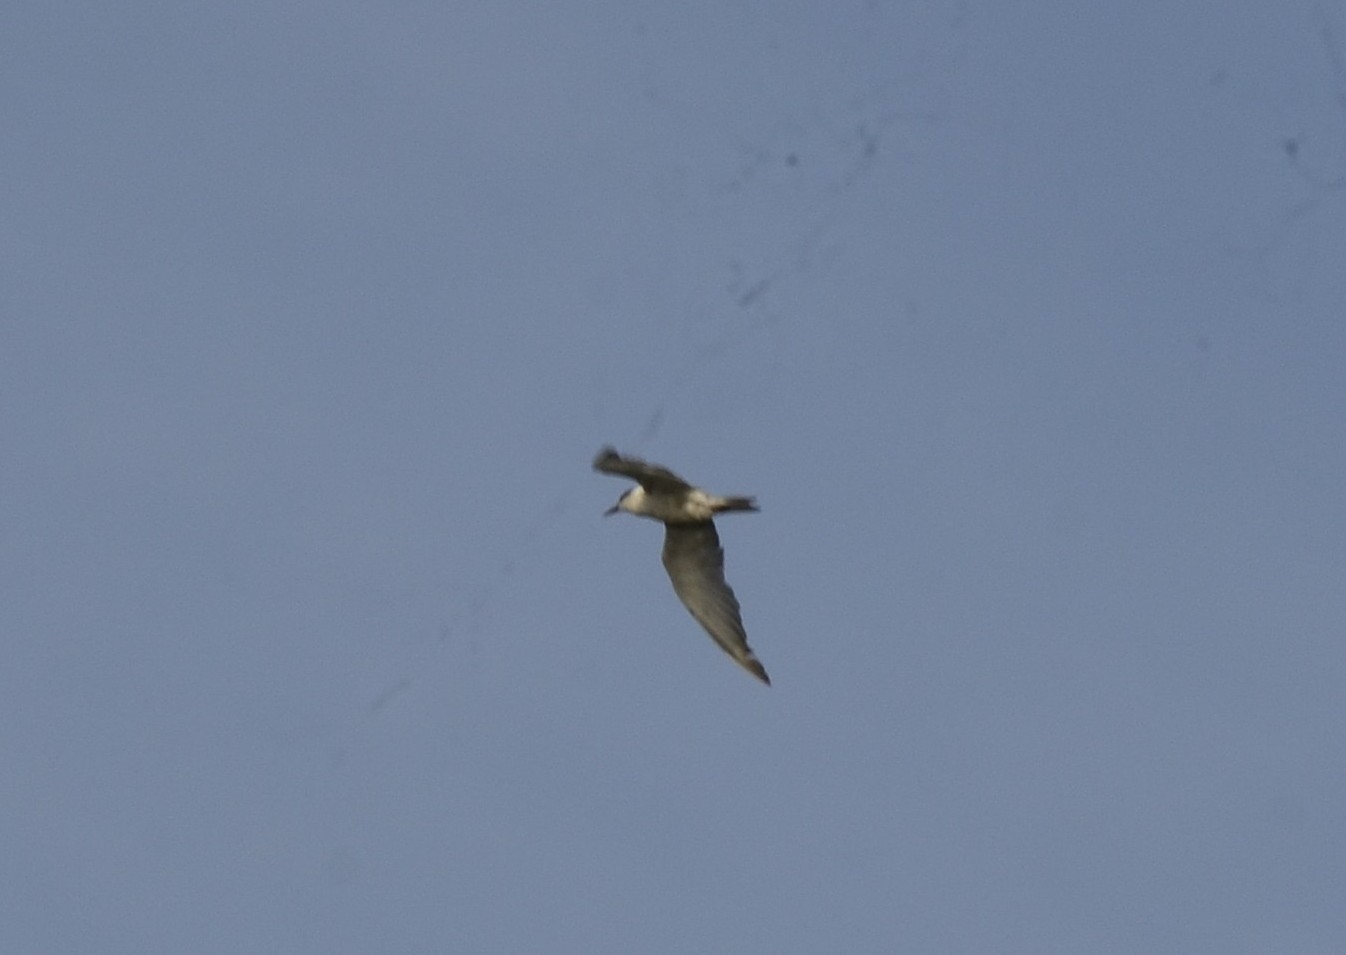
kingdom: Animalia
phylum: Chordata
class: Aves
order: Charadriiformes
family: Laridae
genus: Chlidonias
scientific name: Chlidonias hybrida
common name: Whiskered tern
